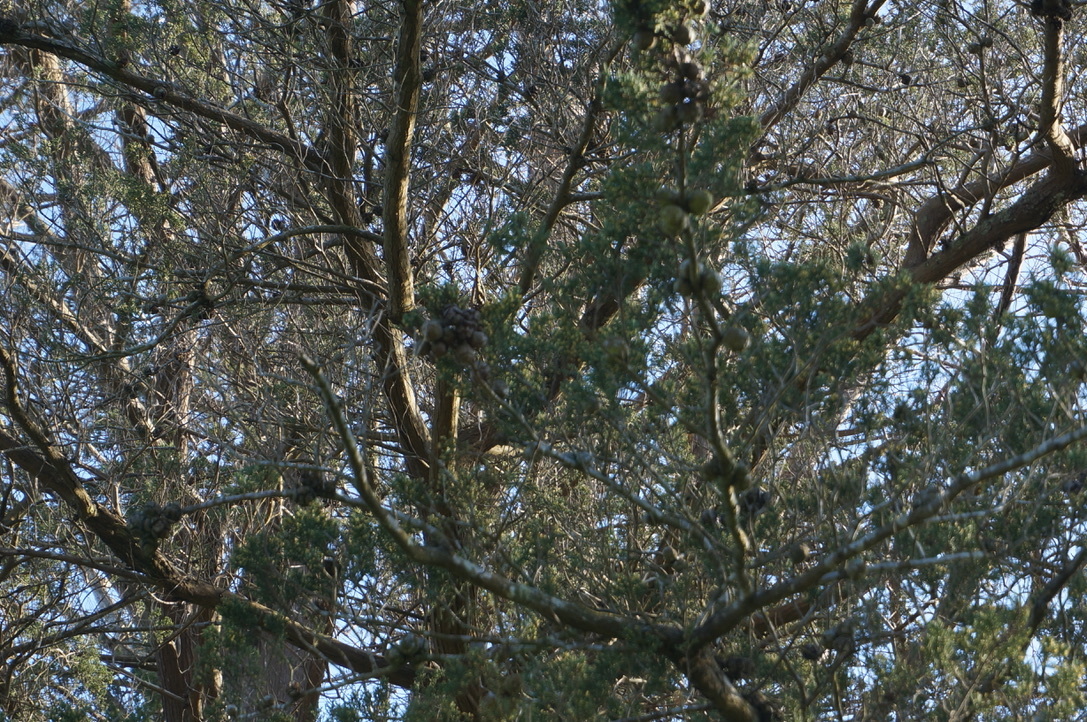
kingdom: Plantae
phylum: Tracheophyta
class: Pinopsida
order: Pinales
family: Cupressaceae
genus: Cupressus
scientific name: Cupressus macrocarpa
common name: Monterey cypress
